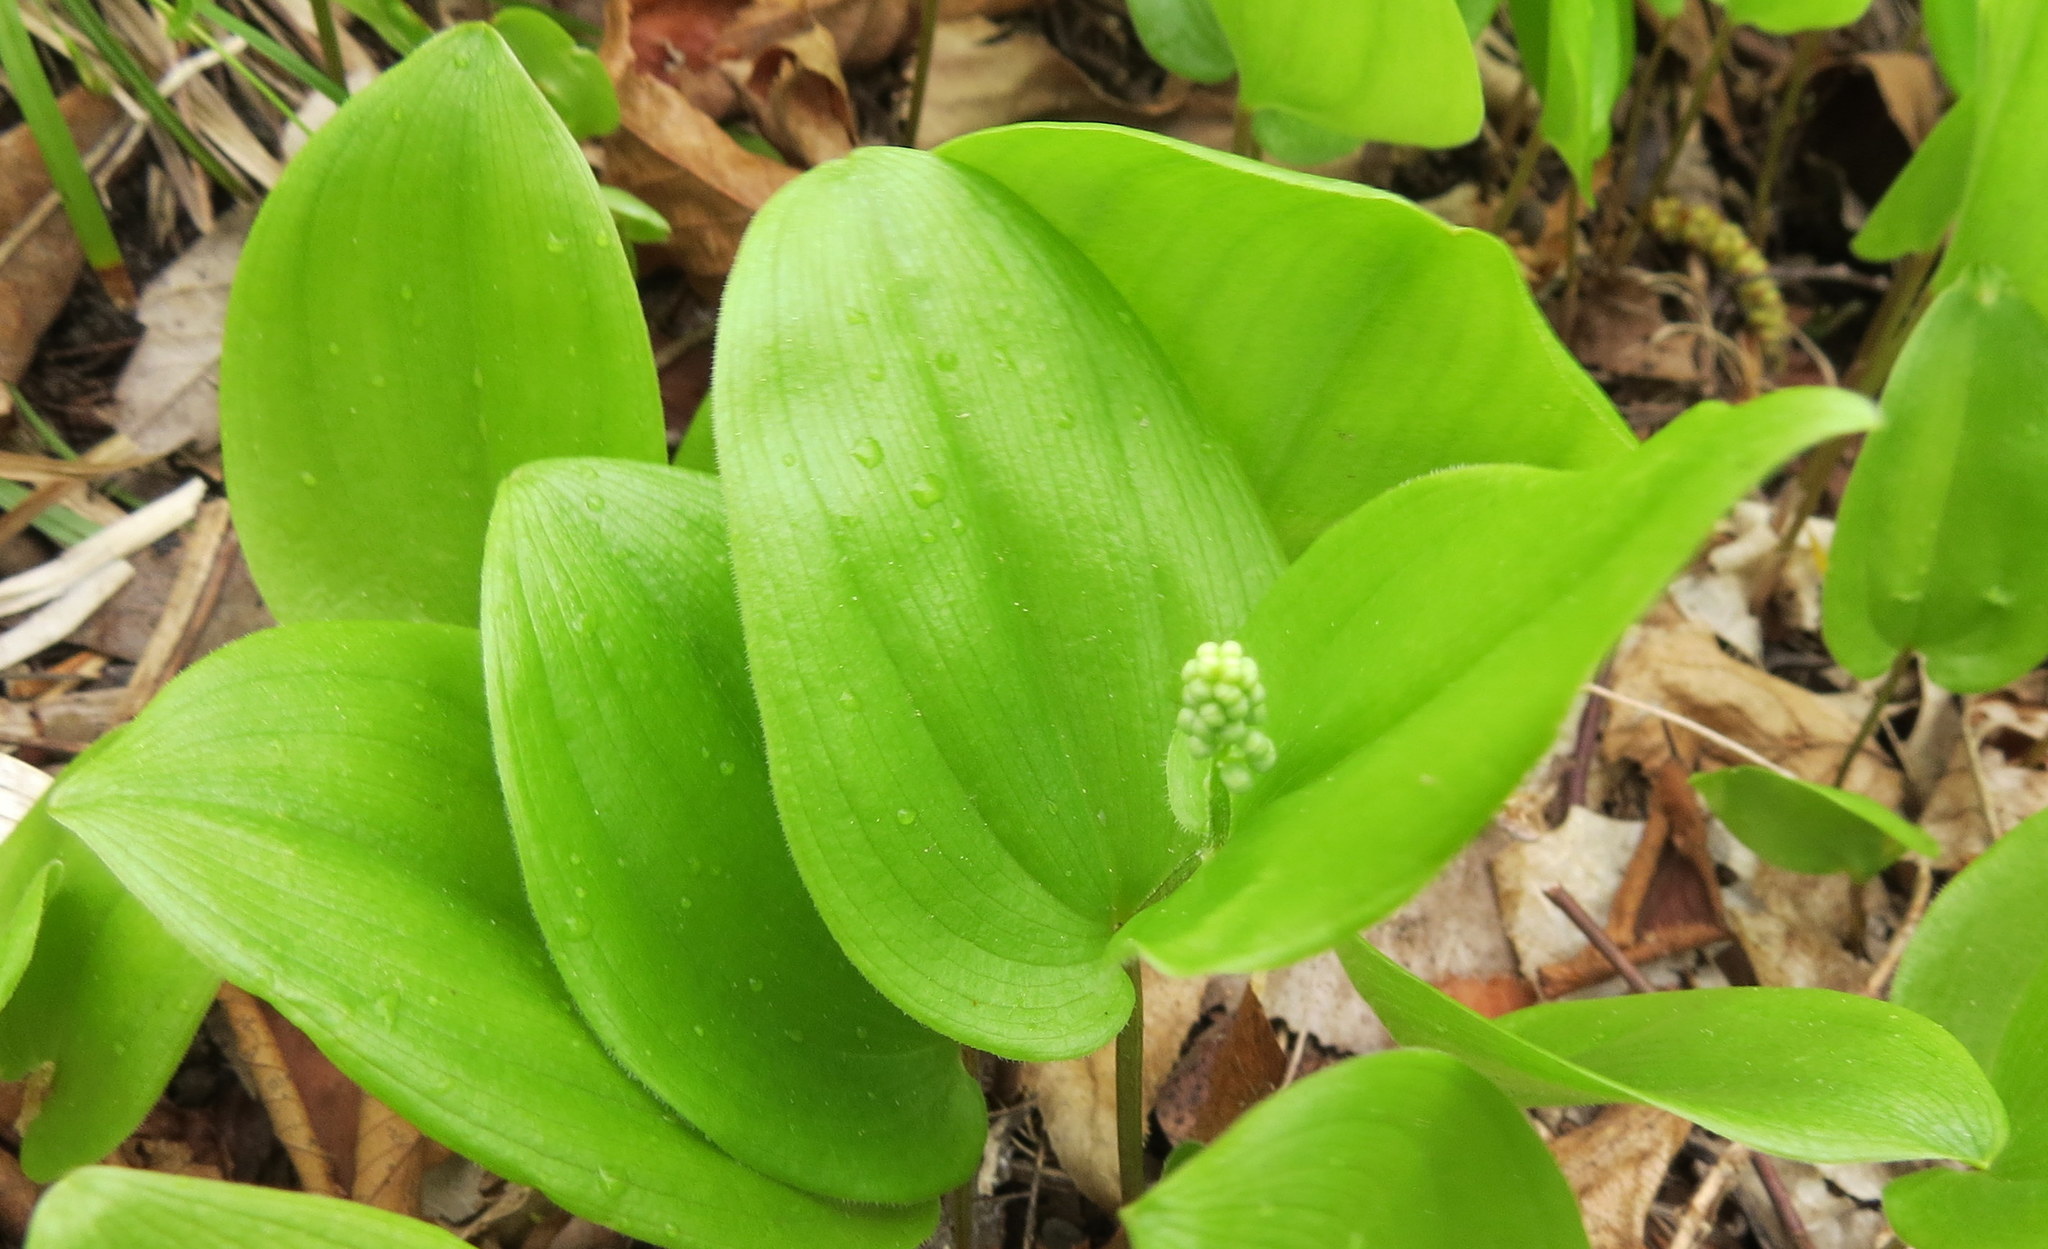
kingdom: Plantae
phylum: Tracheophyta
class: Liliopsida
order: Asparagales
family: Asparagaceae
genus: Maianthemum
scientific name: Maianthemum canadense
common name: False lily-of-the-valley
